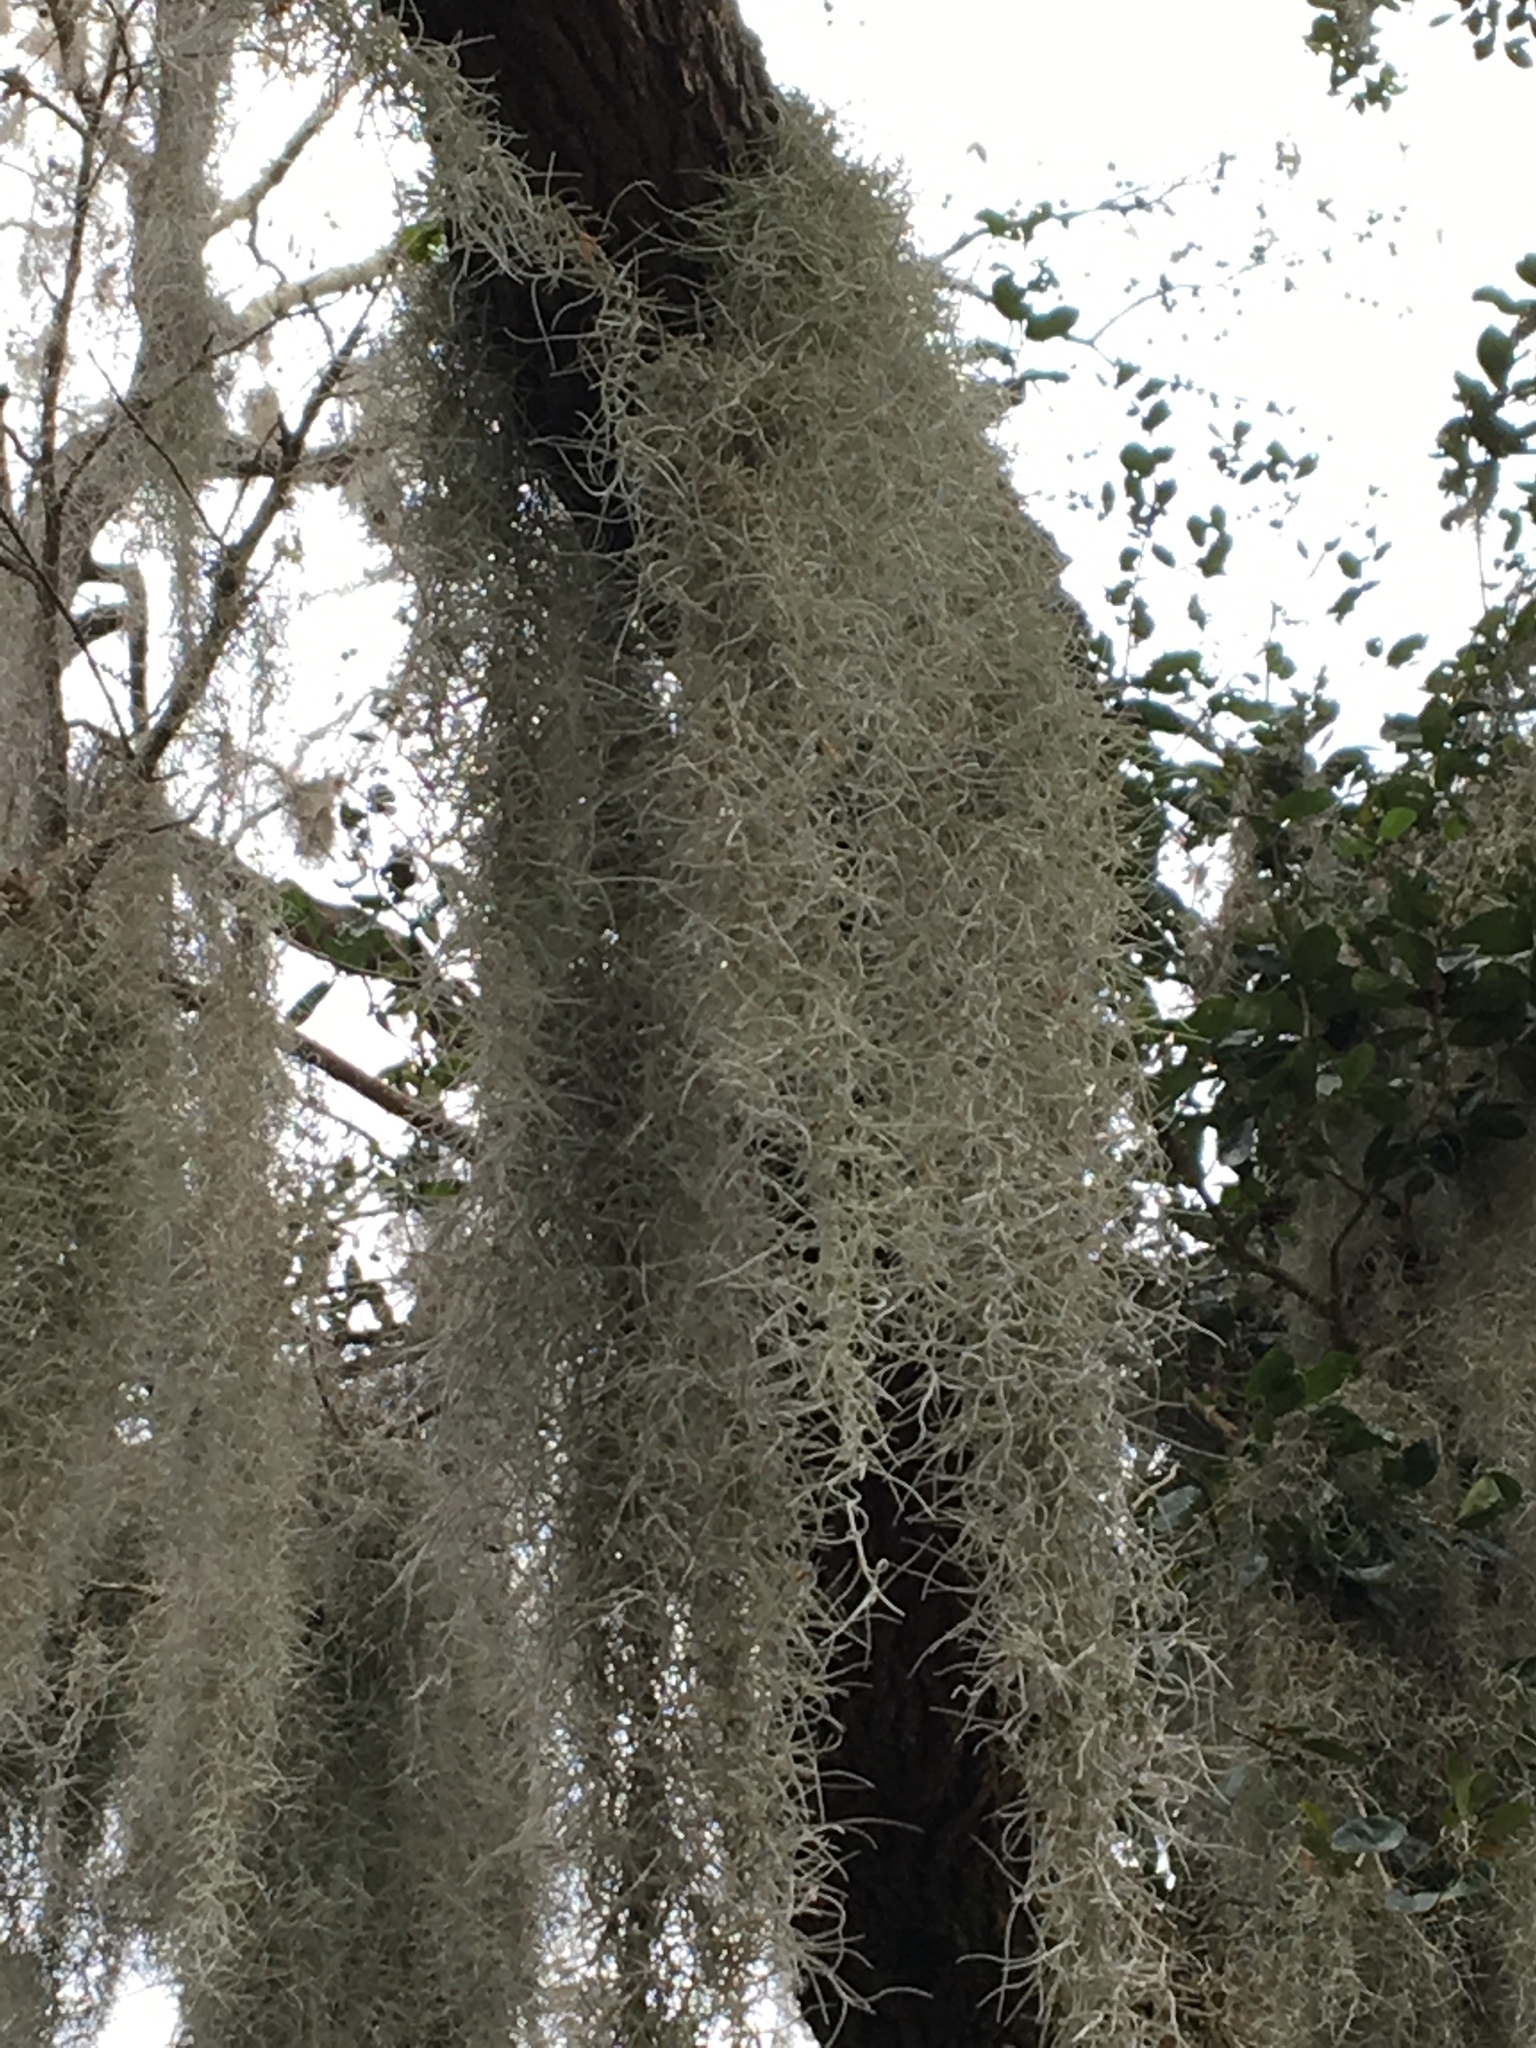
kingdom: Plantae
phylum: Tracheophyta
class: Liliopsida
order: Poales
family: Bromeliaceae
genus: Tillandsia
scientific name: Tillandsia usneoides
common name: Spanish moss
